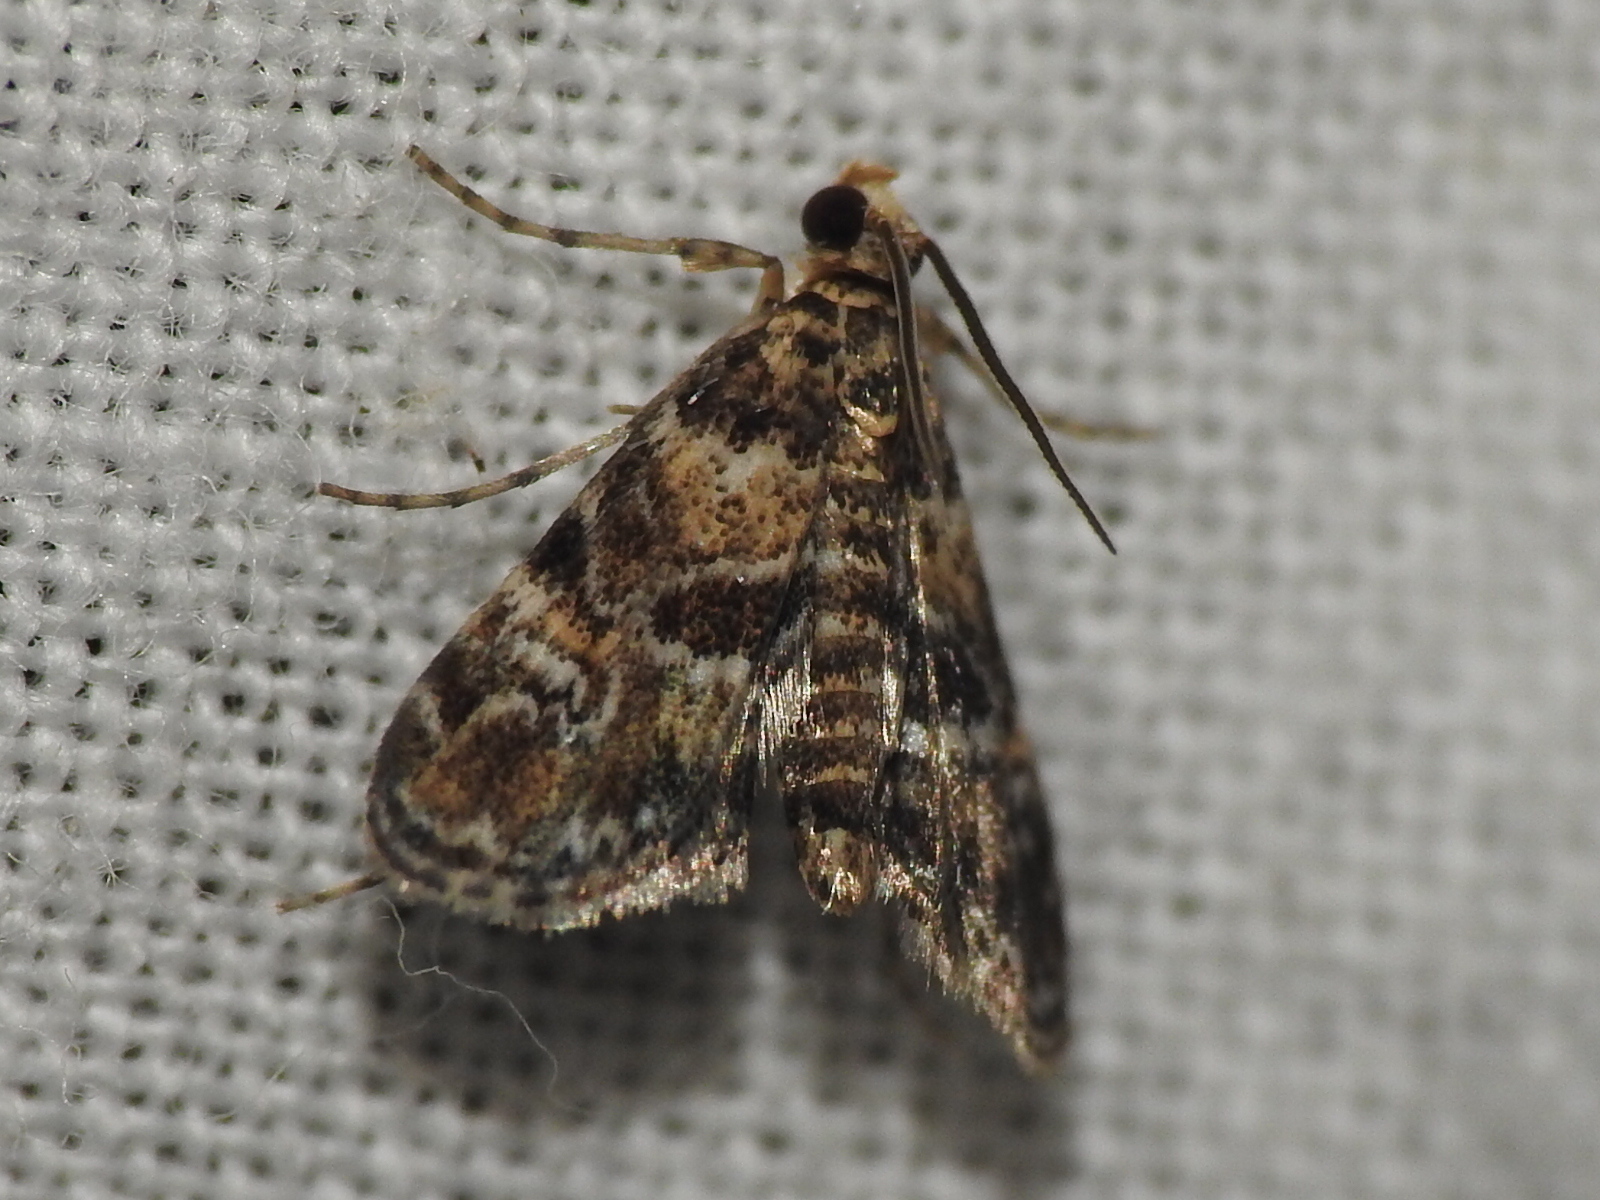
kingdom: Animalia
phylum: Arthropoda
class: Insecta
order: Lepidoptera
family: Crambidae
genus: Elophila
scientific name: Elophila obliteralis
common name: Waterlily leafcutter moth
